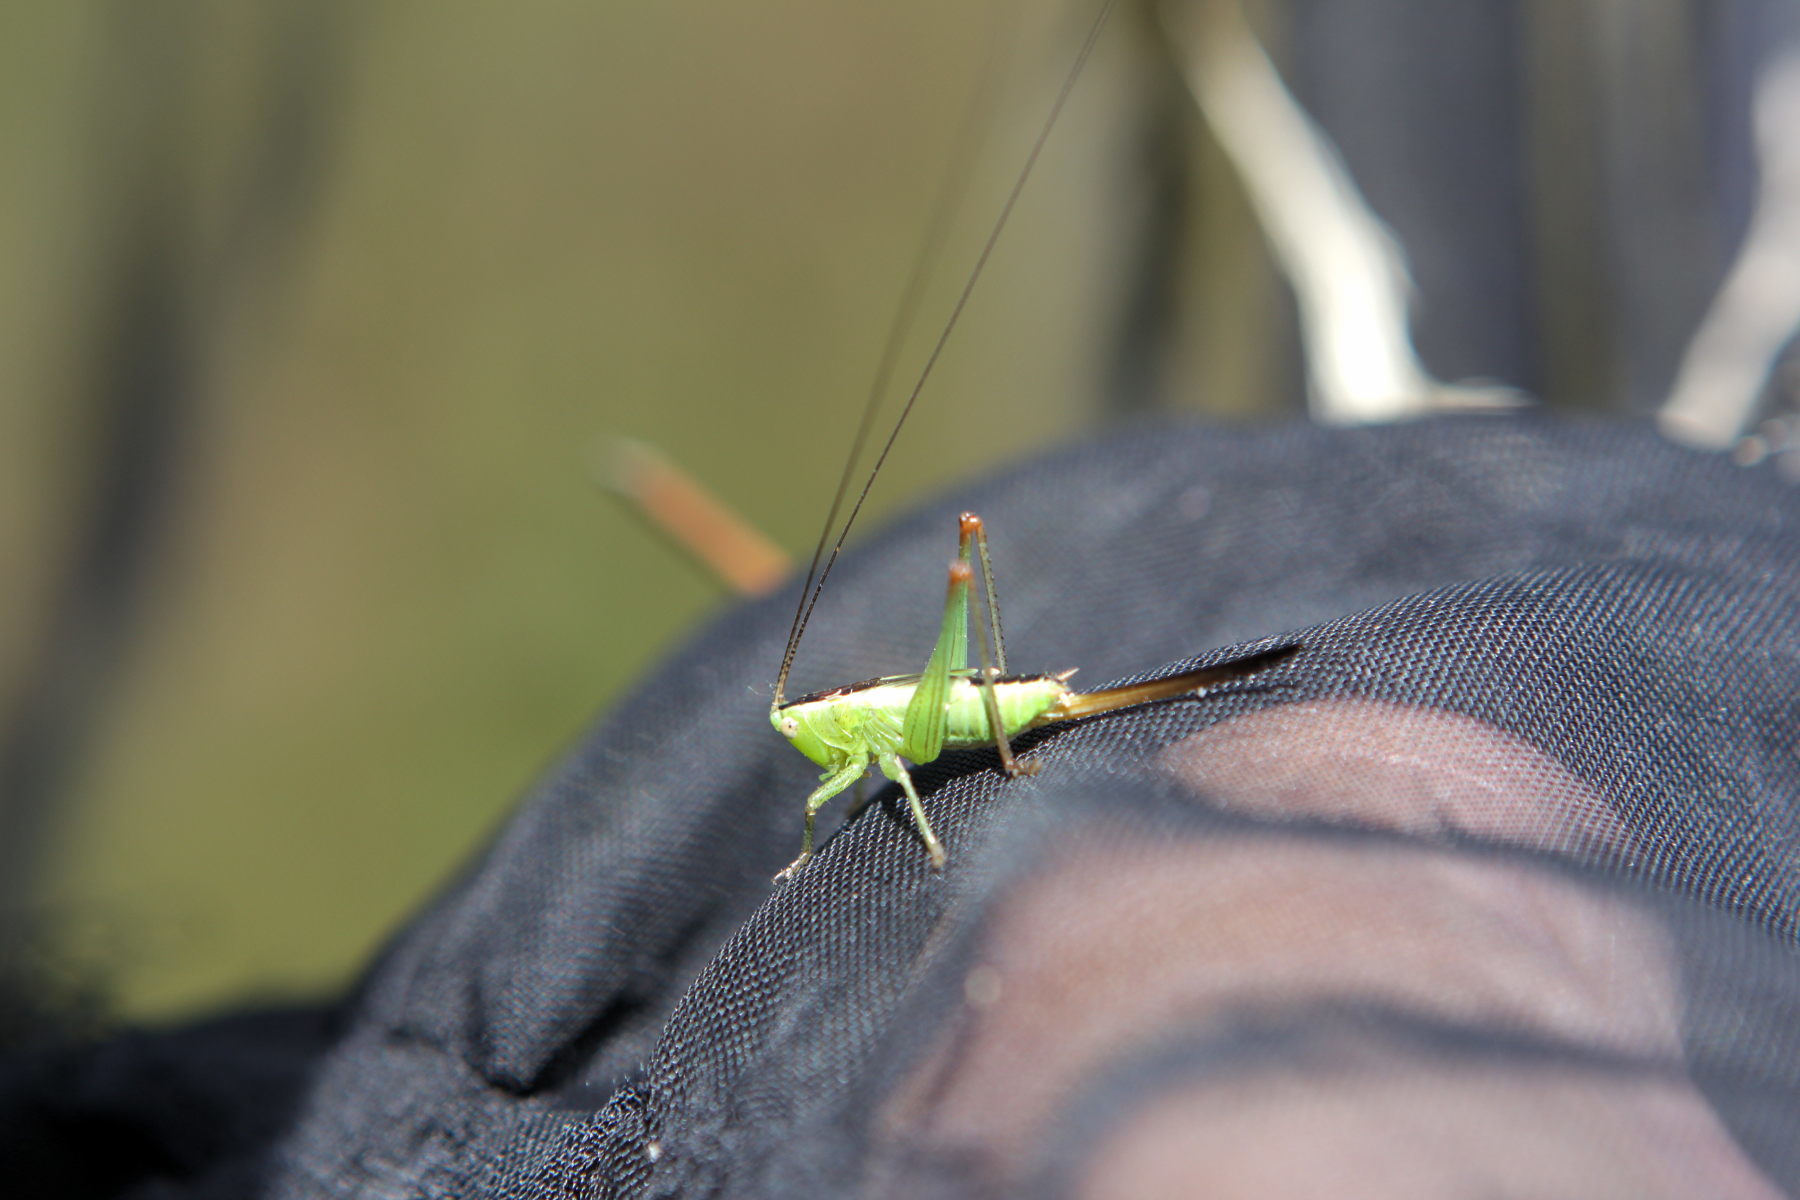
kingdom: Animalia
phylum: Arthropoda
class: Insecta
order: Orthoptera
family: Tettigoniidae
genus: Conocephalus
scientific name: Conocephalus fuscus
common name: Long-winged conehead
